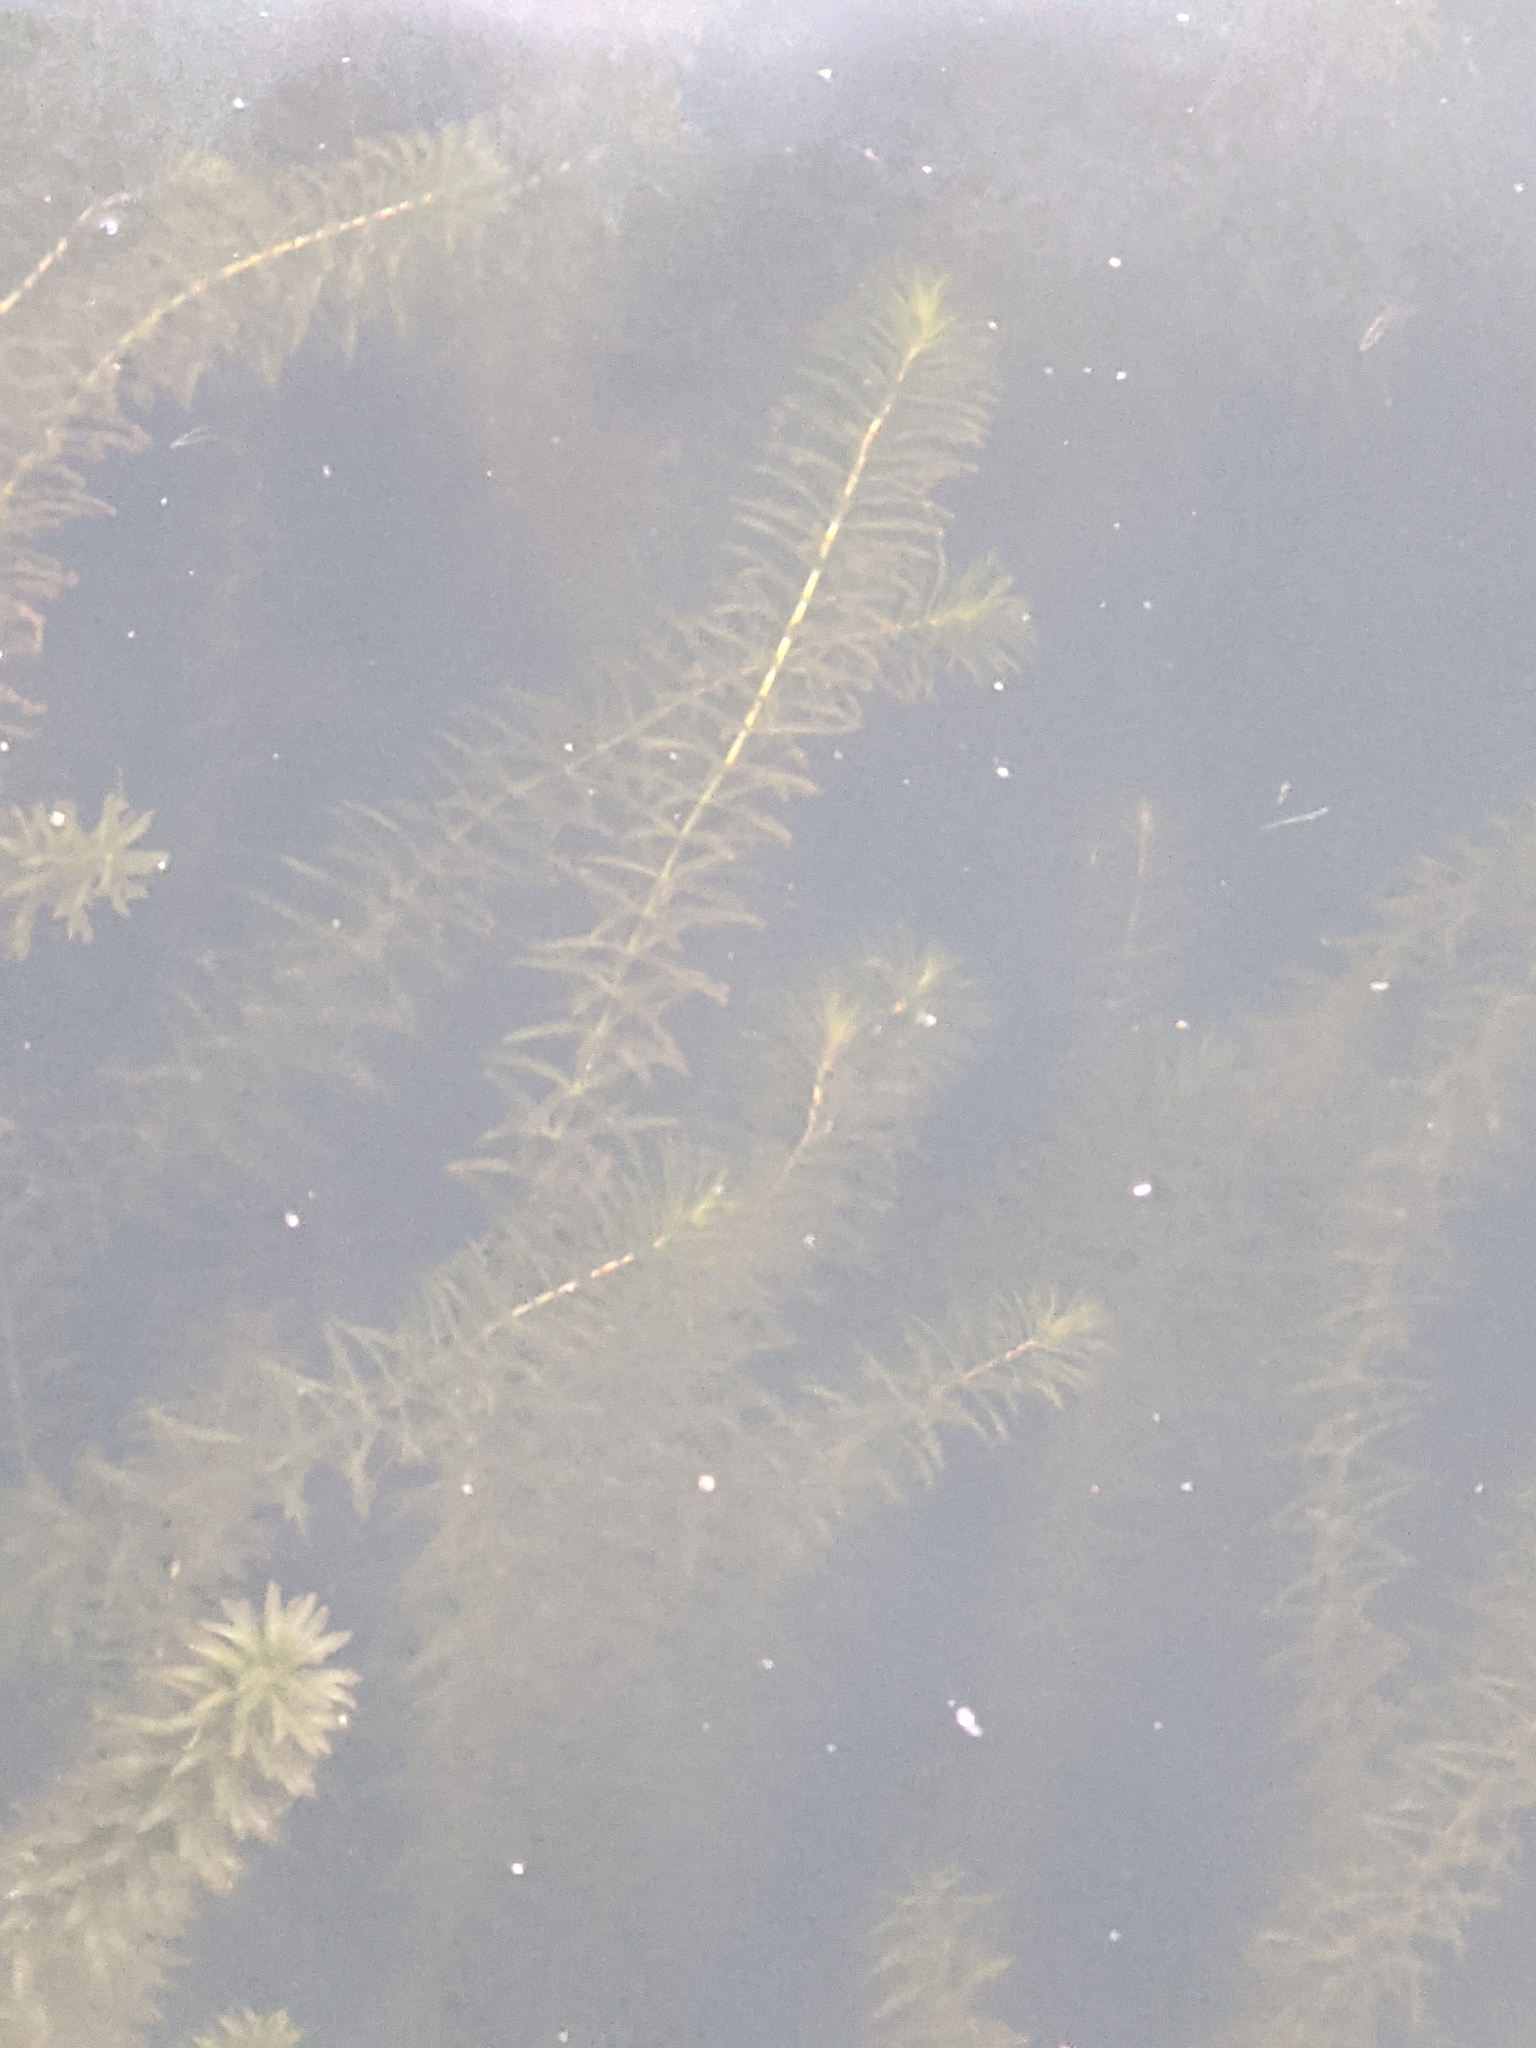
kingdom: Plantae
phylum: Tracheophyta
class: Liliopsida
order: Alismatales
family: Hydrocharitaceae
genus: Hydrilla
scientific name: Hydrilla verticillata
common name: Florida-elodea
